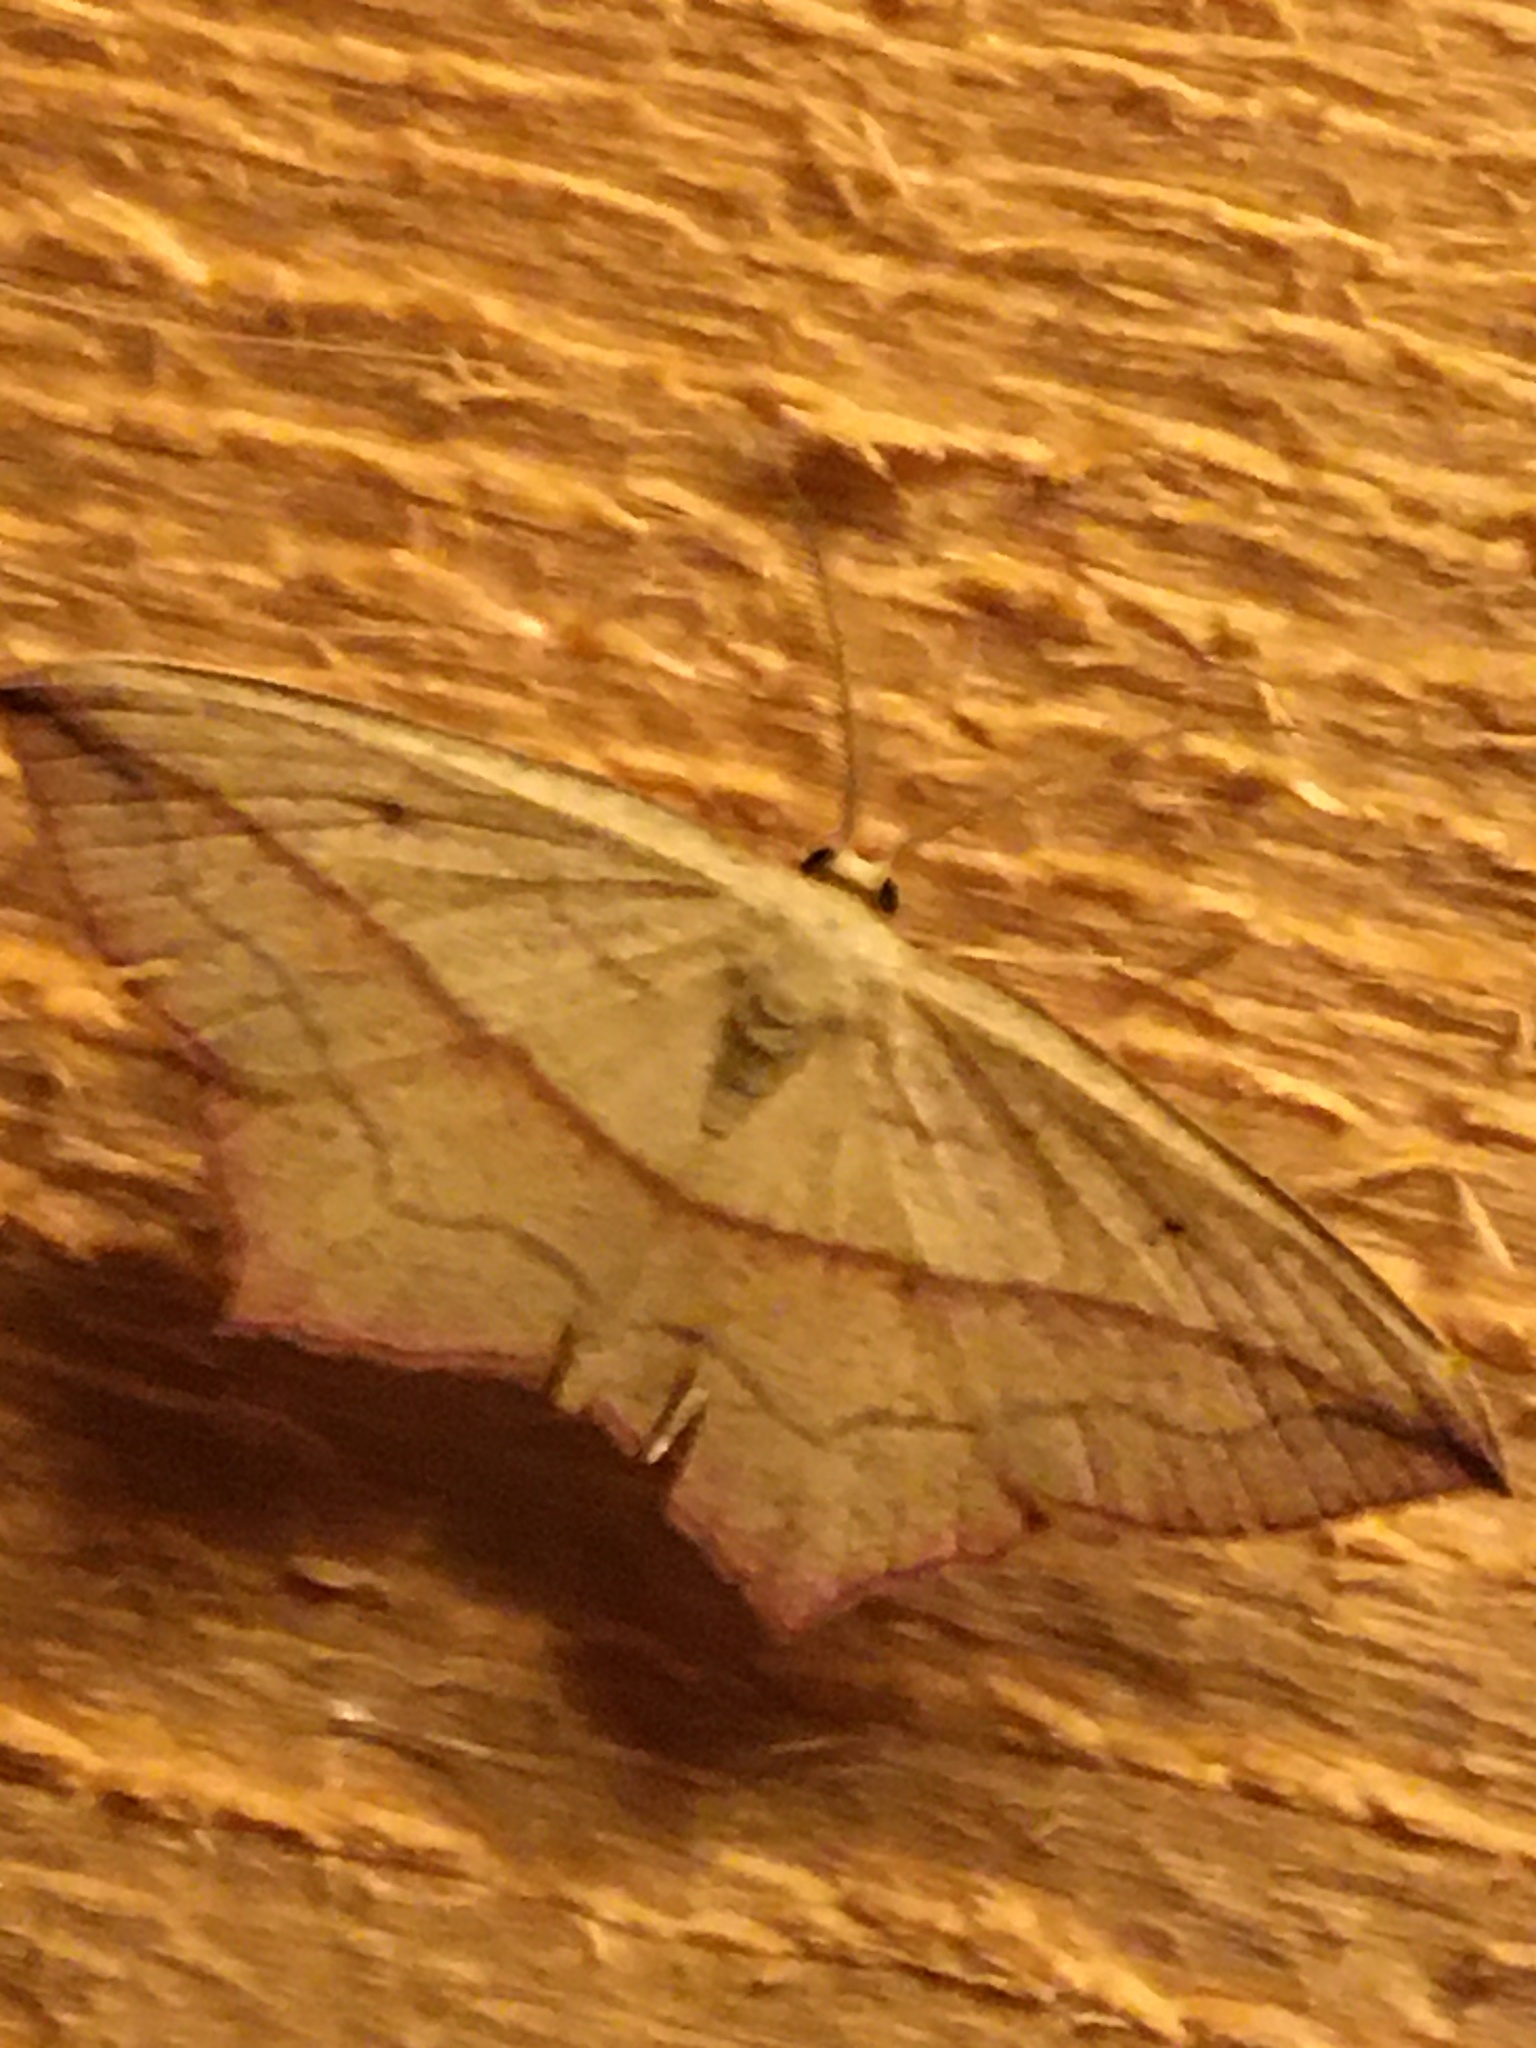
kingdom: Animalia
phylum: Arthropoda
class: Insecta
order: Lepidoptera
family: Geometridae
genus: Timandra
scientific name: Timandra comae
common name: Blood-vein
